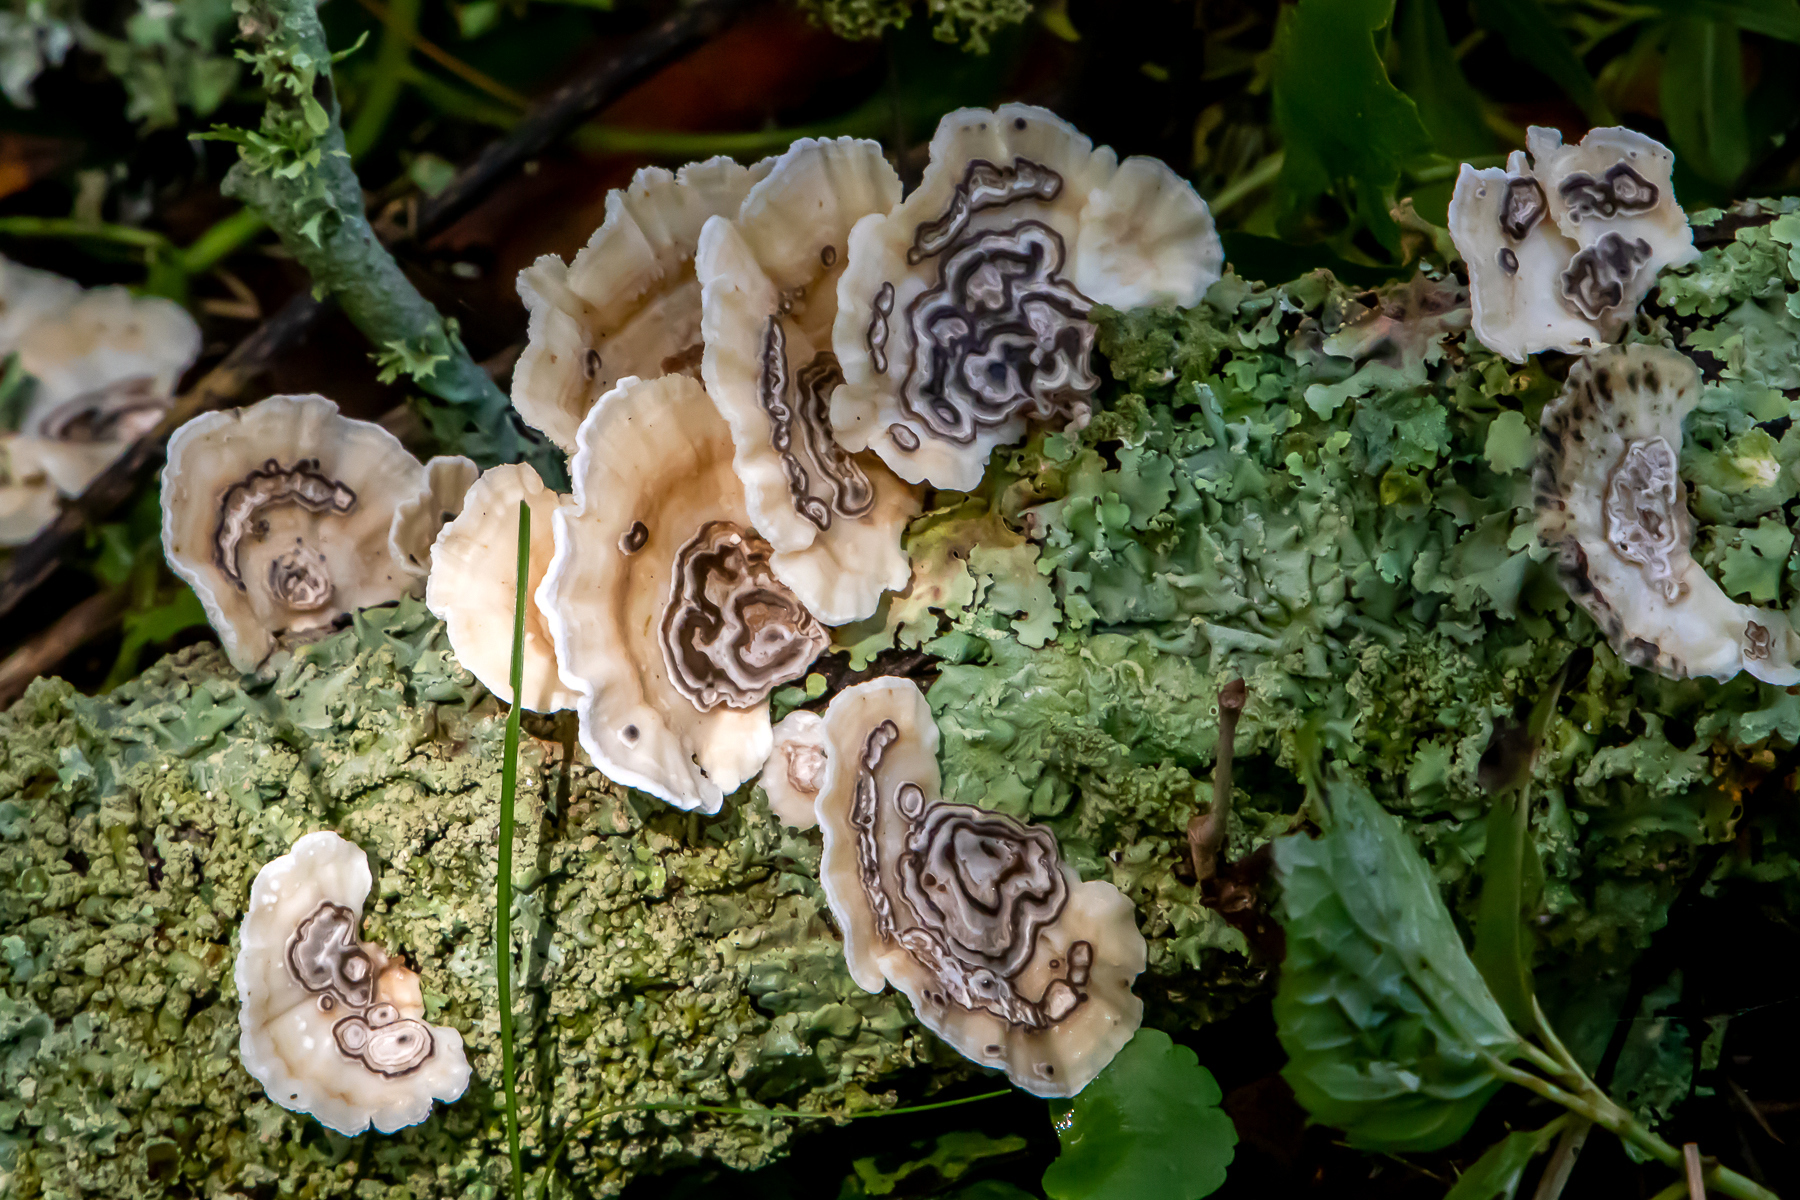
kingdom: Fungi
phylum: Basidiomycota
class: Agaricomycetes
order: Polyporales
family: Polyporaceae
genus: Poronidulus
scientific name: Poronidulus conchifer
